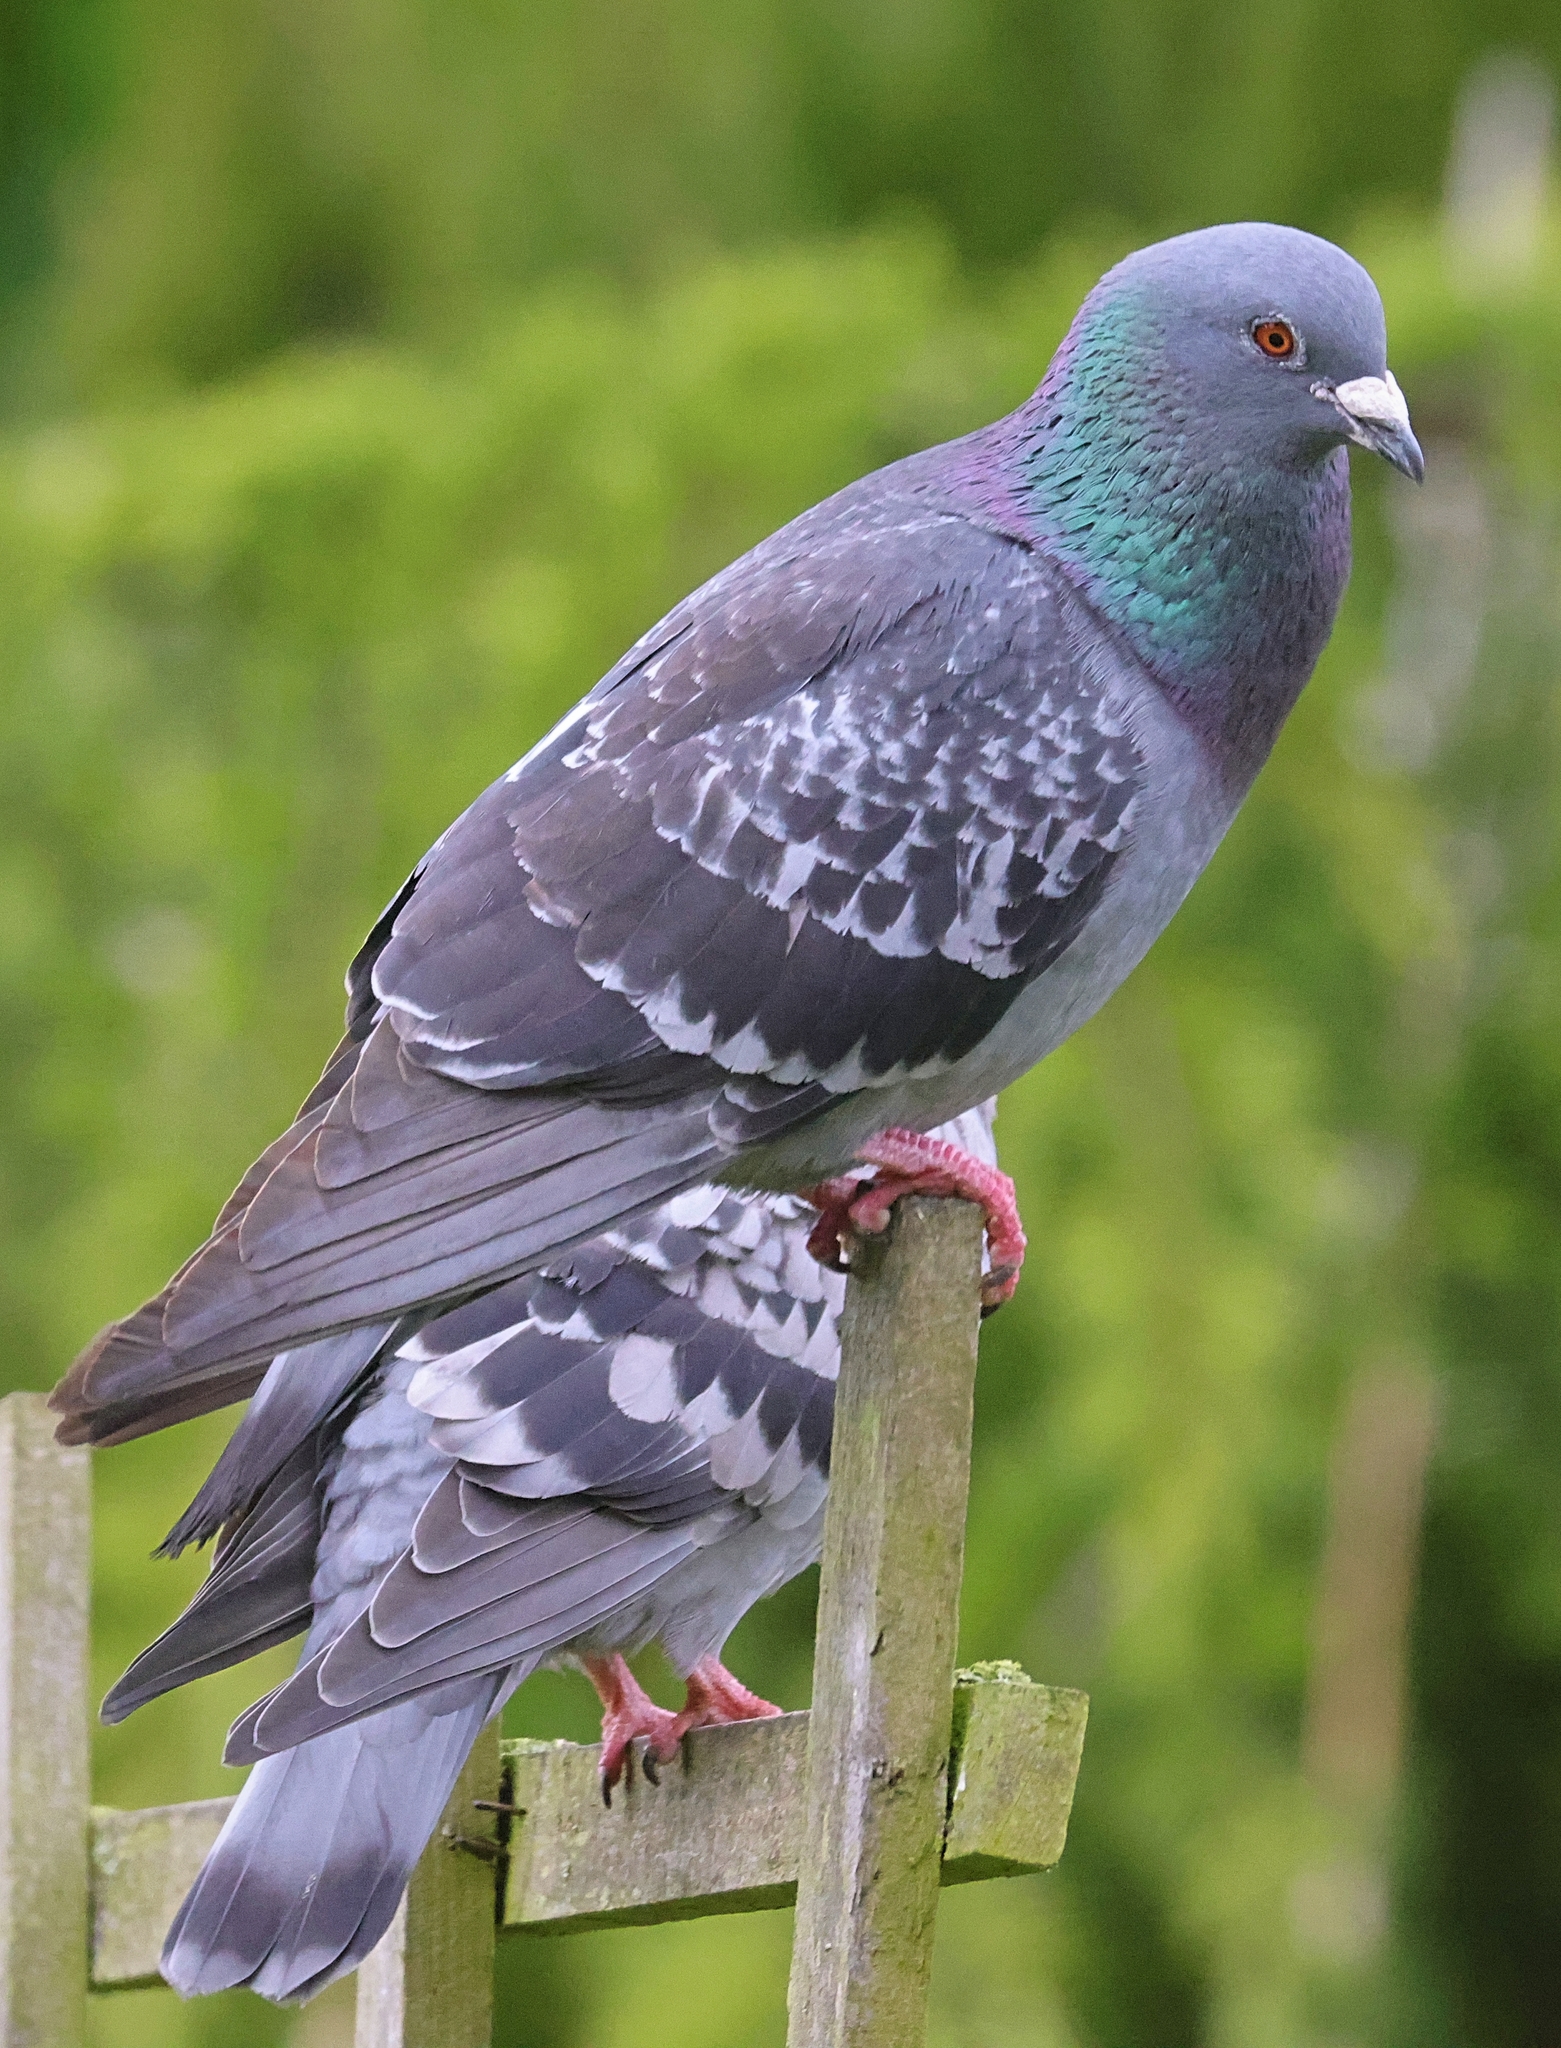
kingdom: Animalia
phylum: Chordata
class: Aves
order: Columbiformes
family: Columbidae
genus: Columba
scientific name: Columba livia
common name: Rock pigeon
